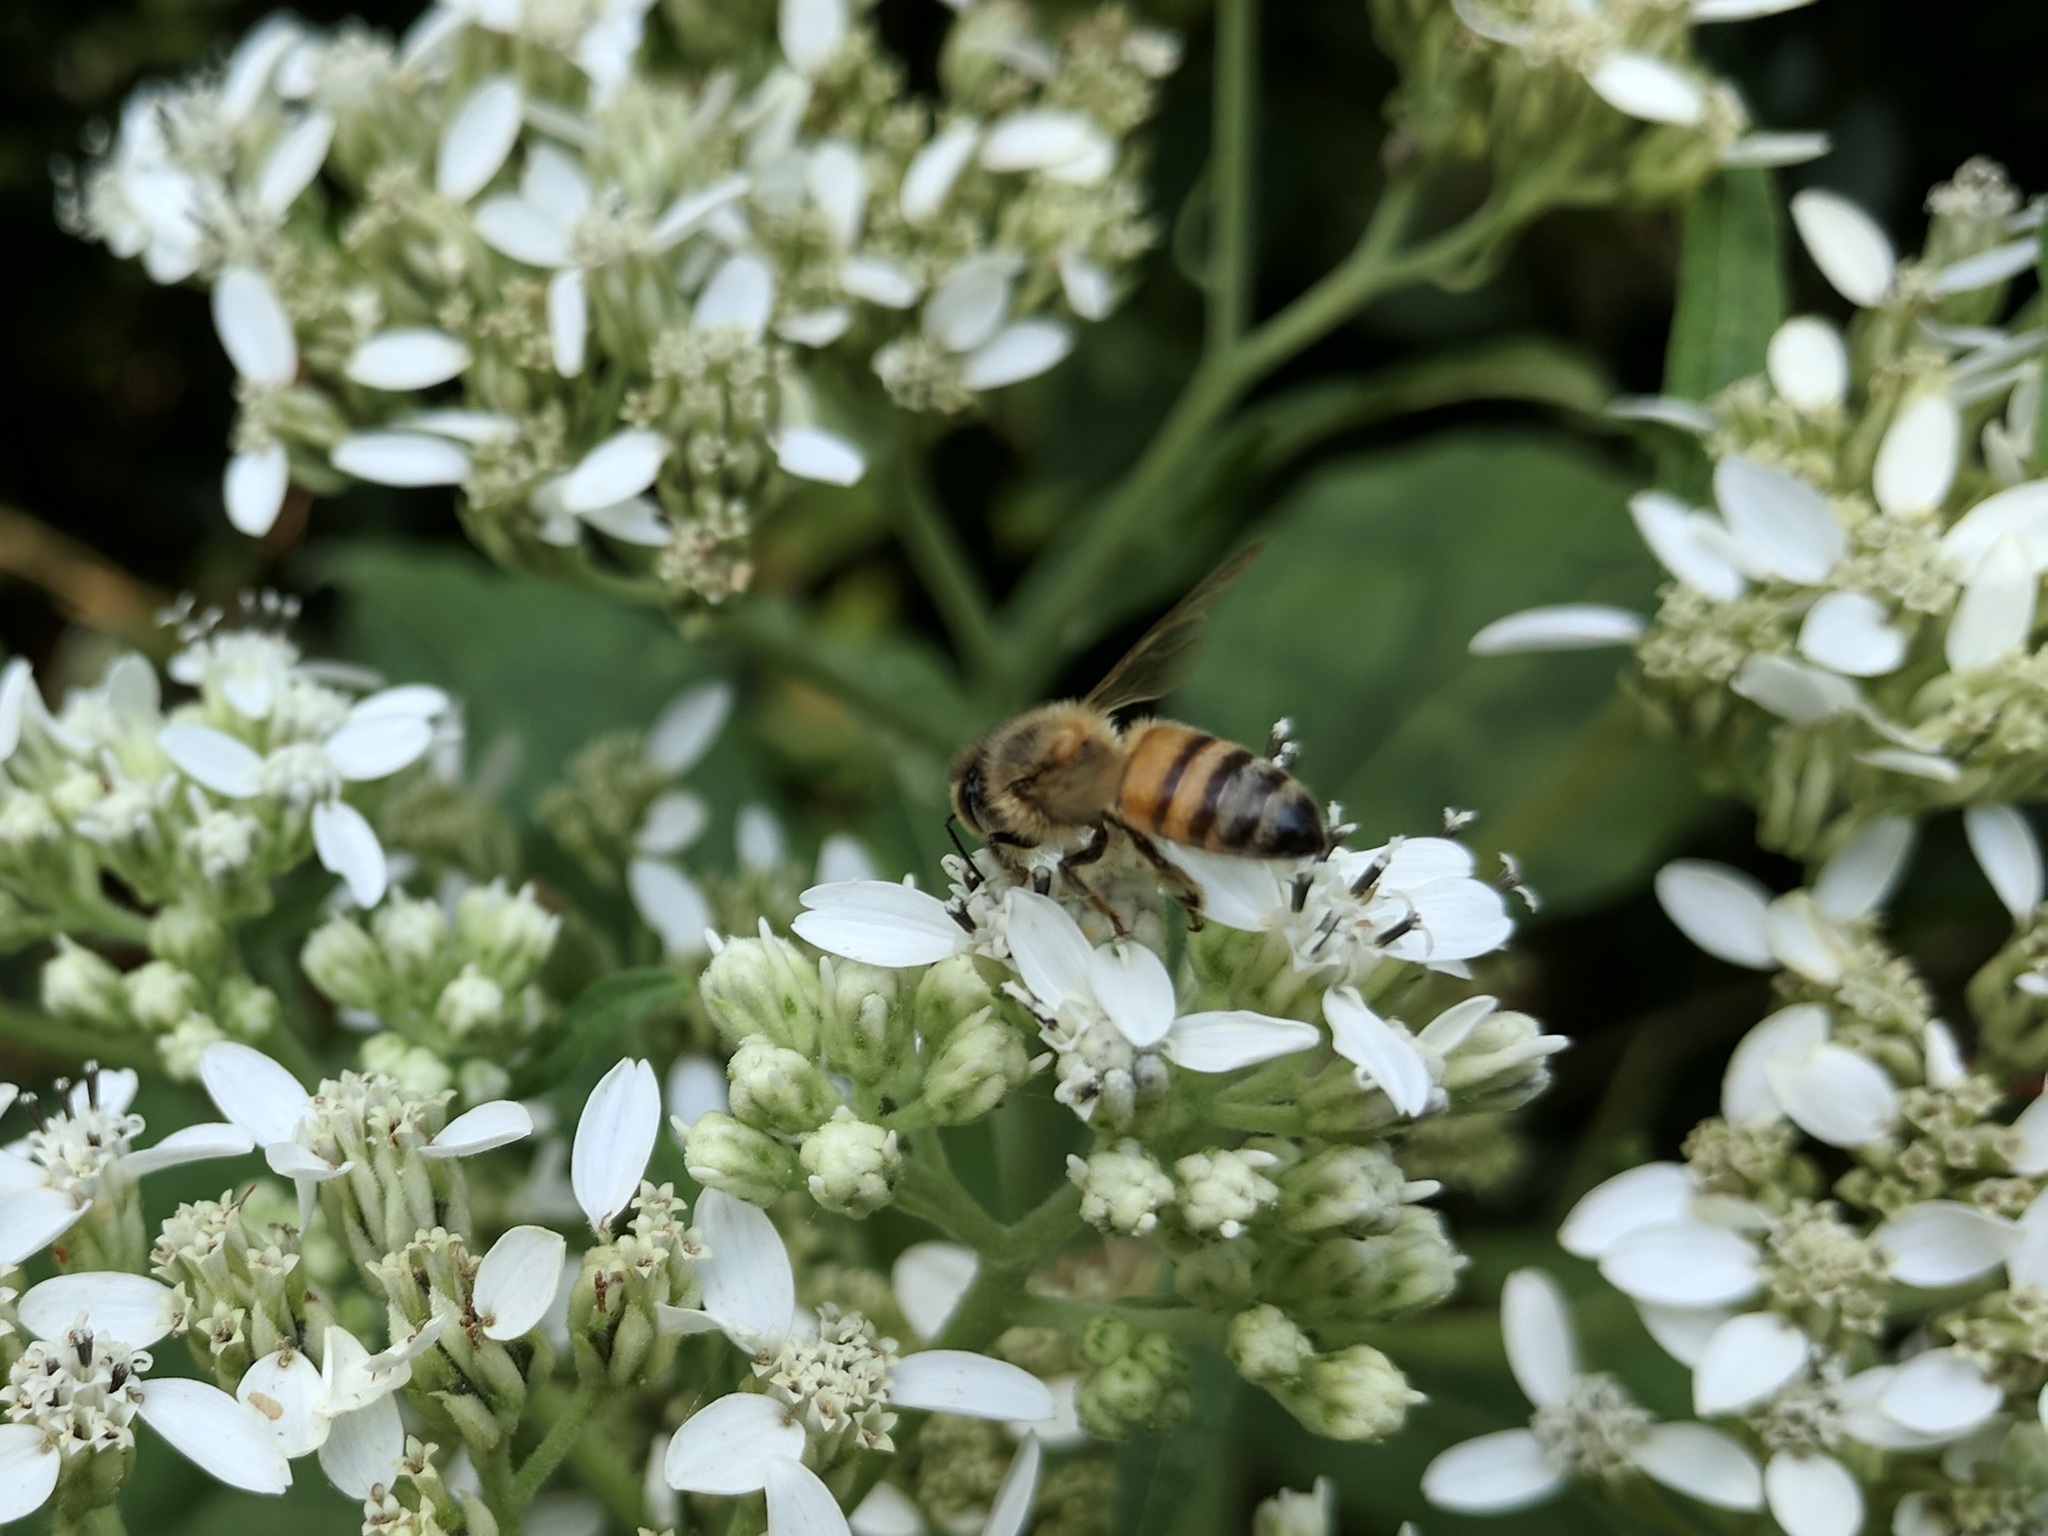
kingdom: Animalia
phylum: Arthropoda
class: Insecta
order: Hymenoptera
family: Apidae
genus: Apis
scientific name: Apis mellifera
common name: Honey bee
